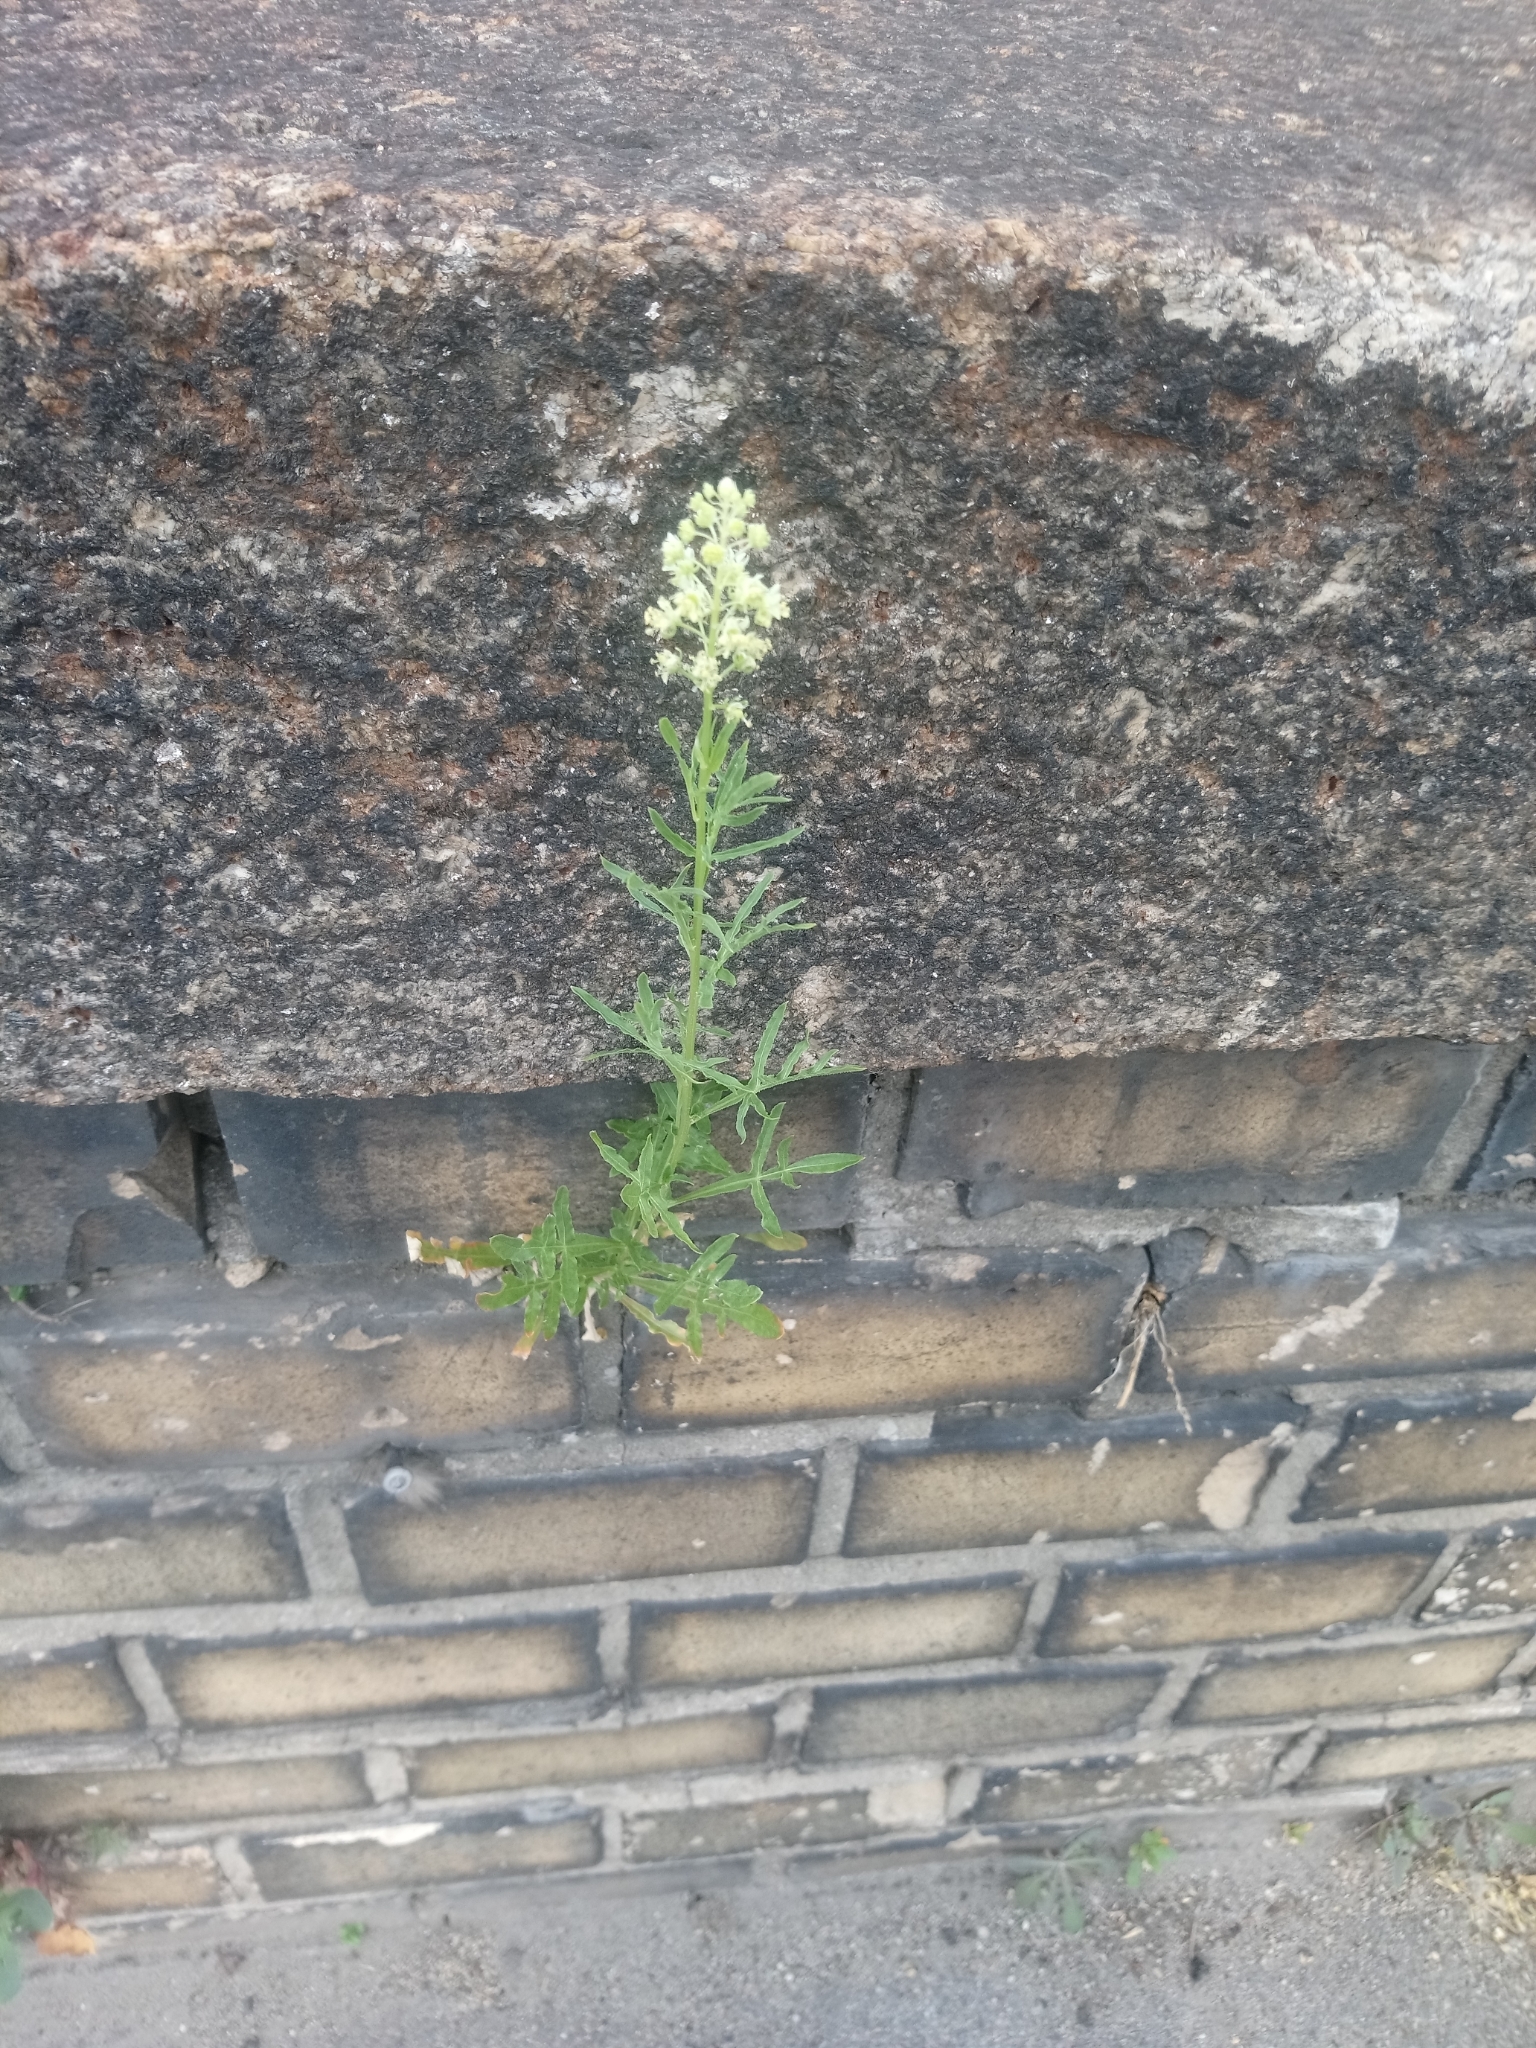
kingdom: Plantae
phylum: Tracheophyta
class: Magnoliopsida
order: Brassicales
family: Resedaceae
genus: Reseda
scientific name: Reseda lutea
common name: Wild mignonette
